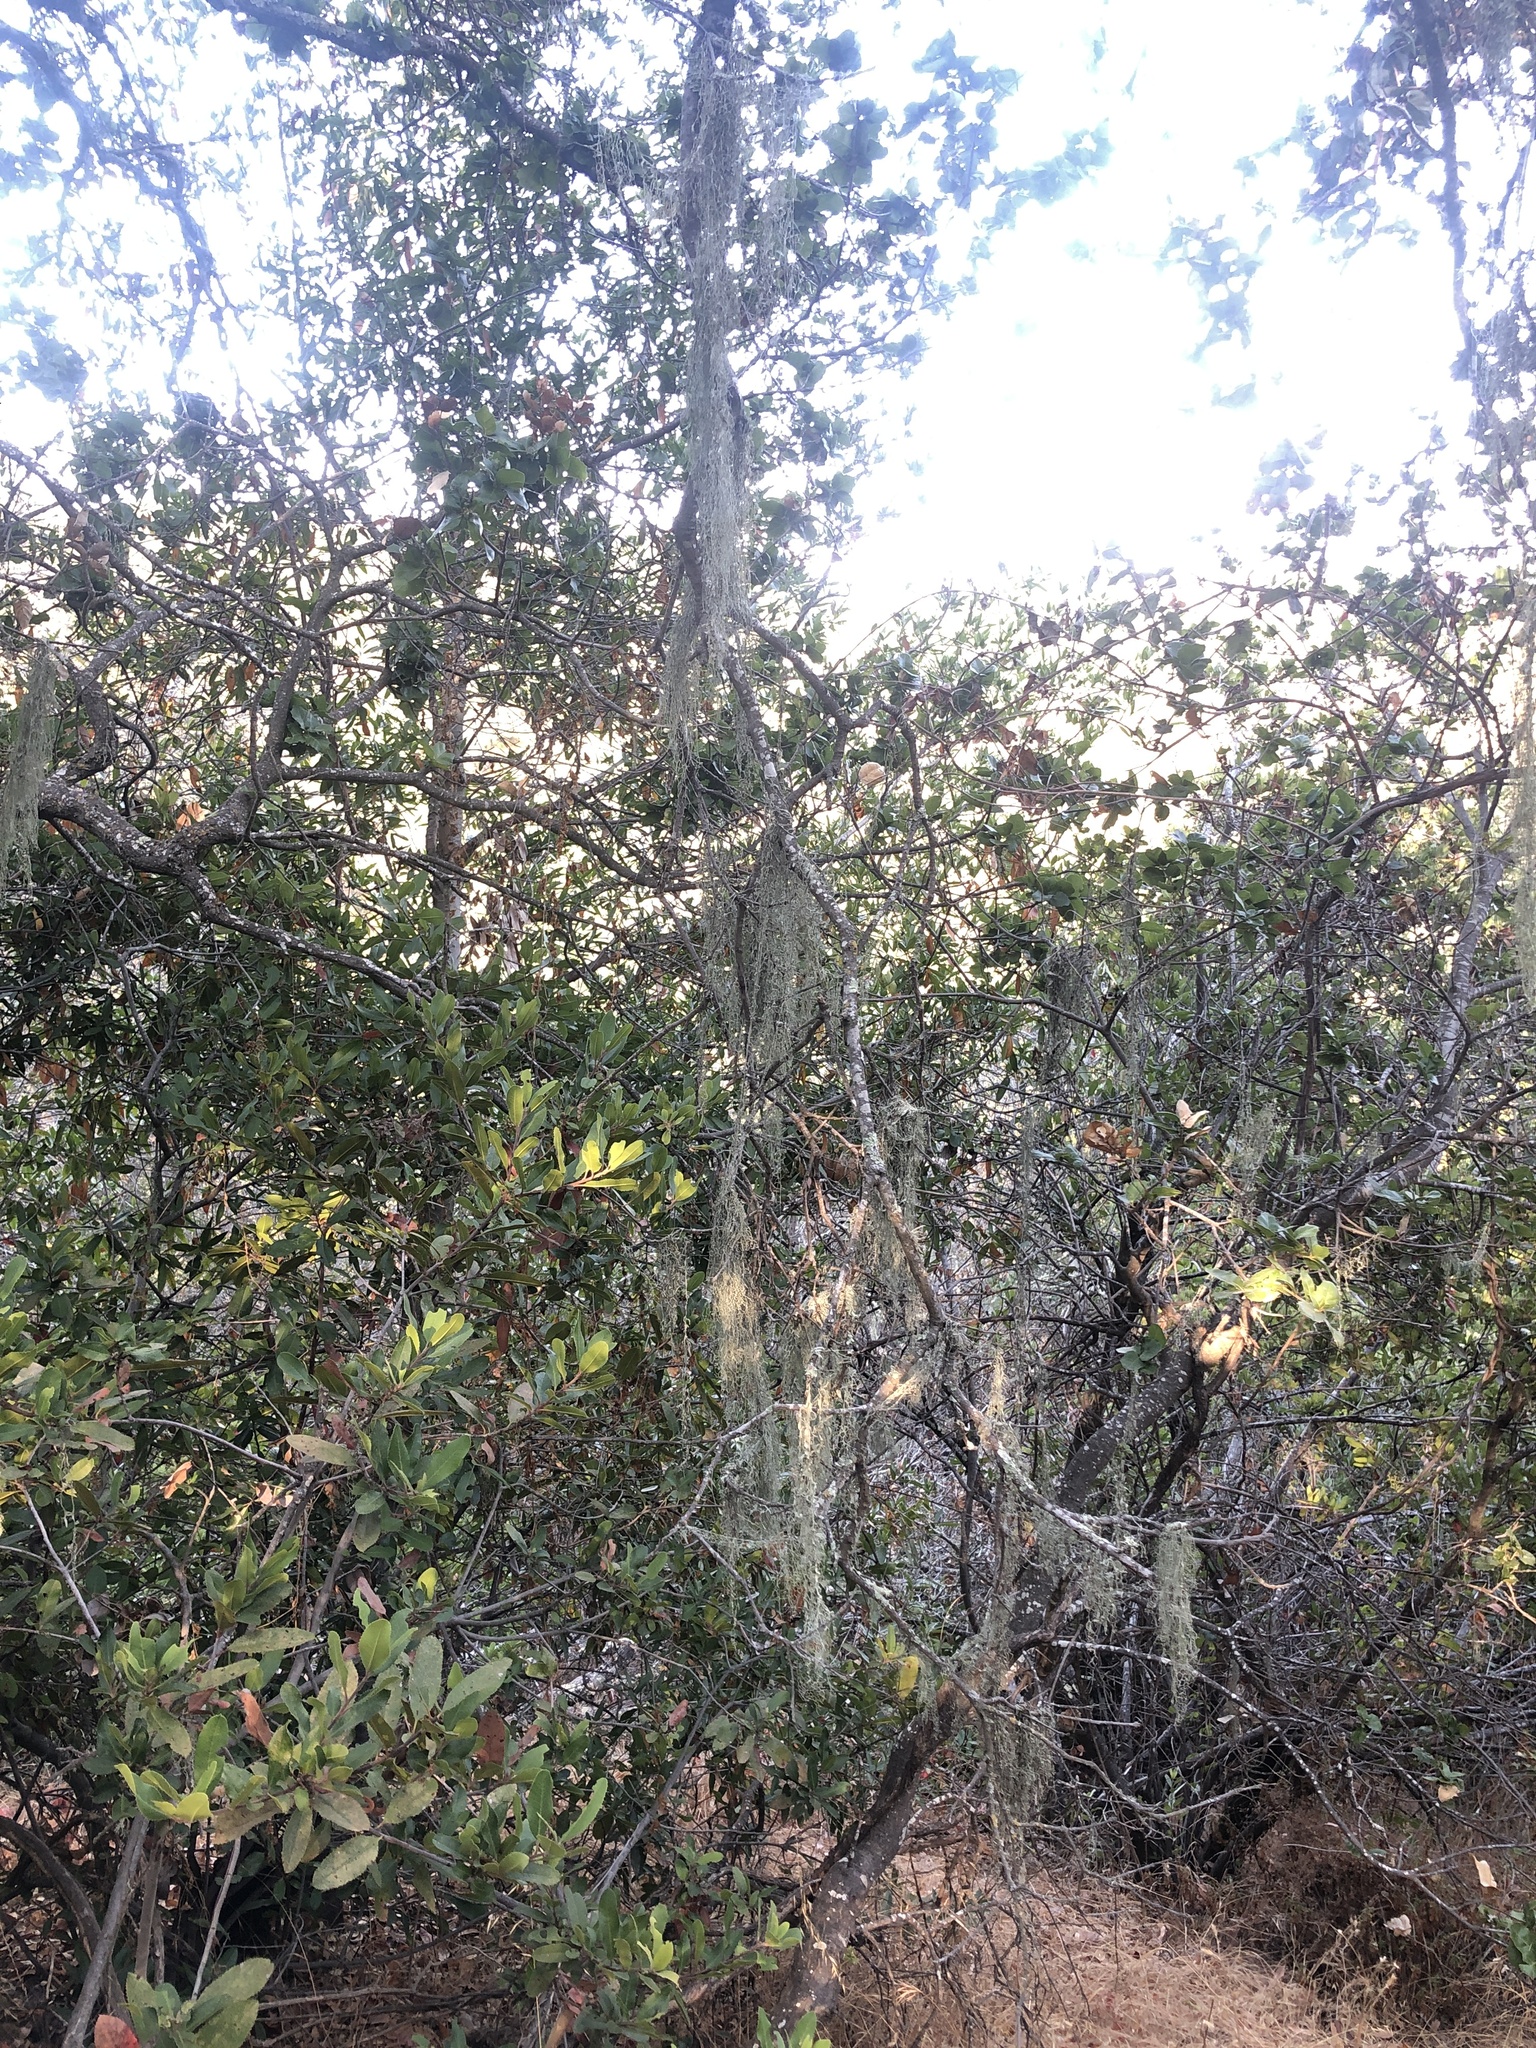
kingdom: Fungi
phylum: Ascomycota
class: Lecanoromycetes
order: Lecanorales
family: Ramalinaceae
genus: Ramalina
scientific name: Ramalina menziesii
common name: Lace lichen
